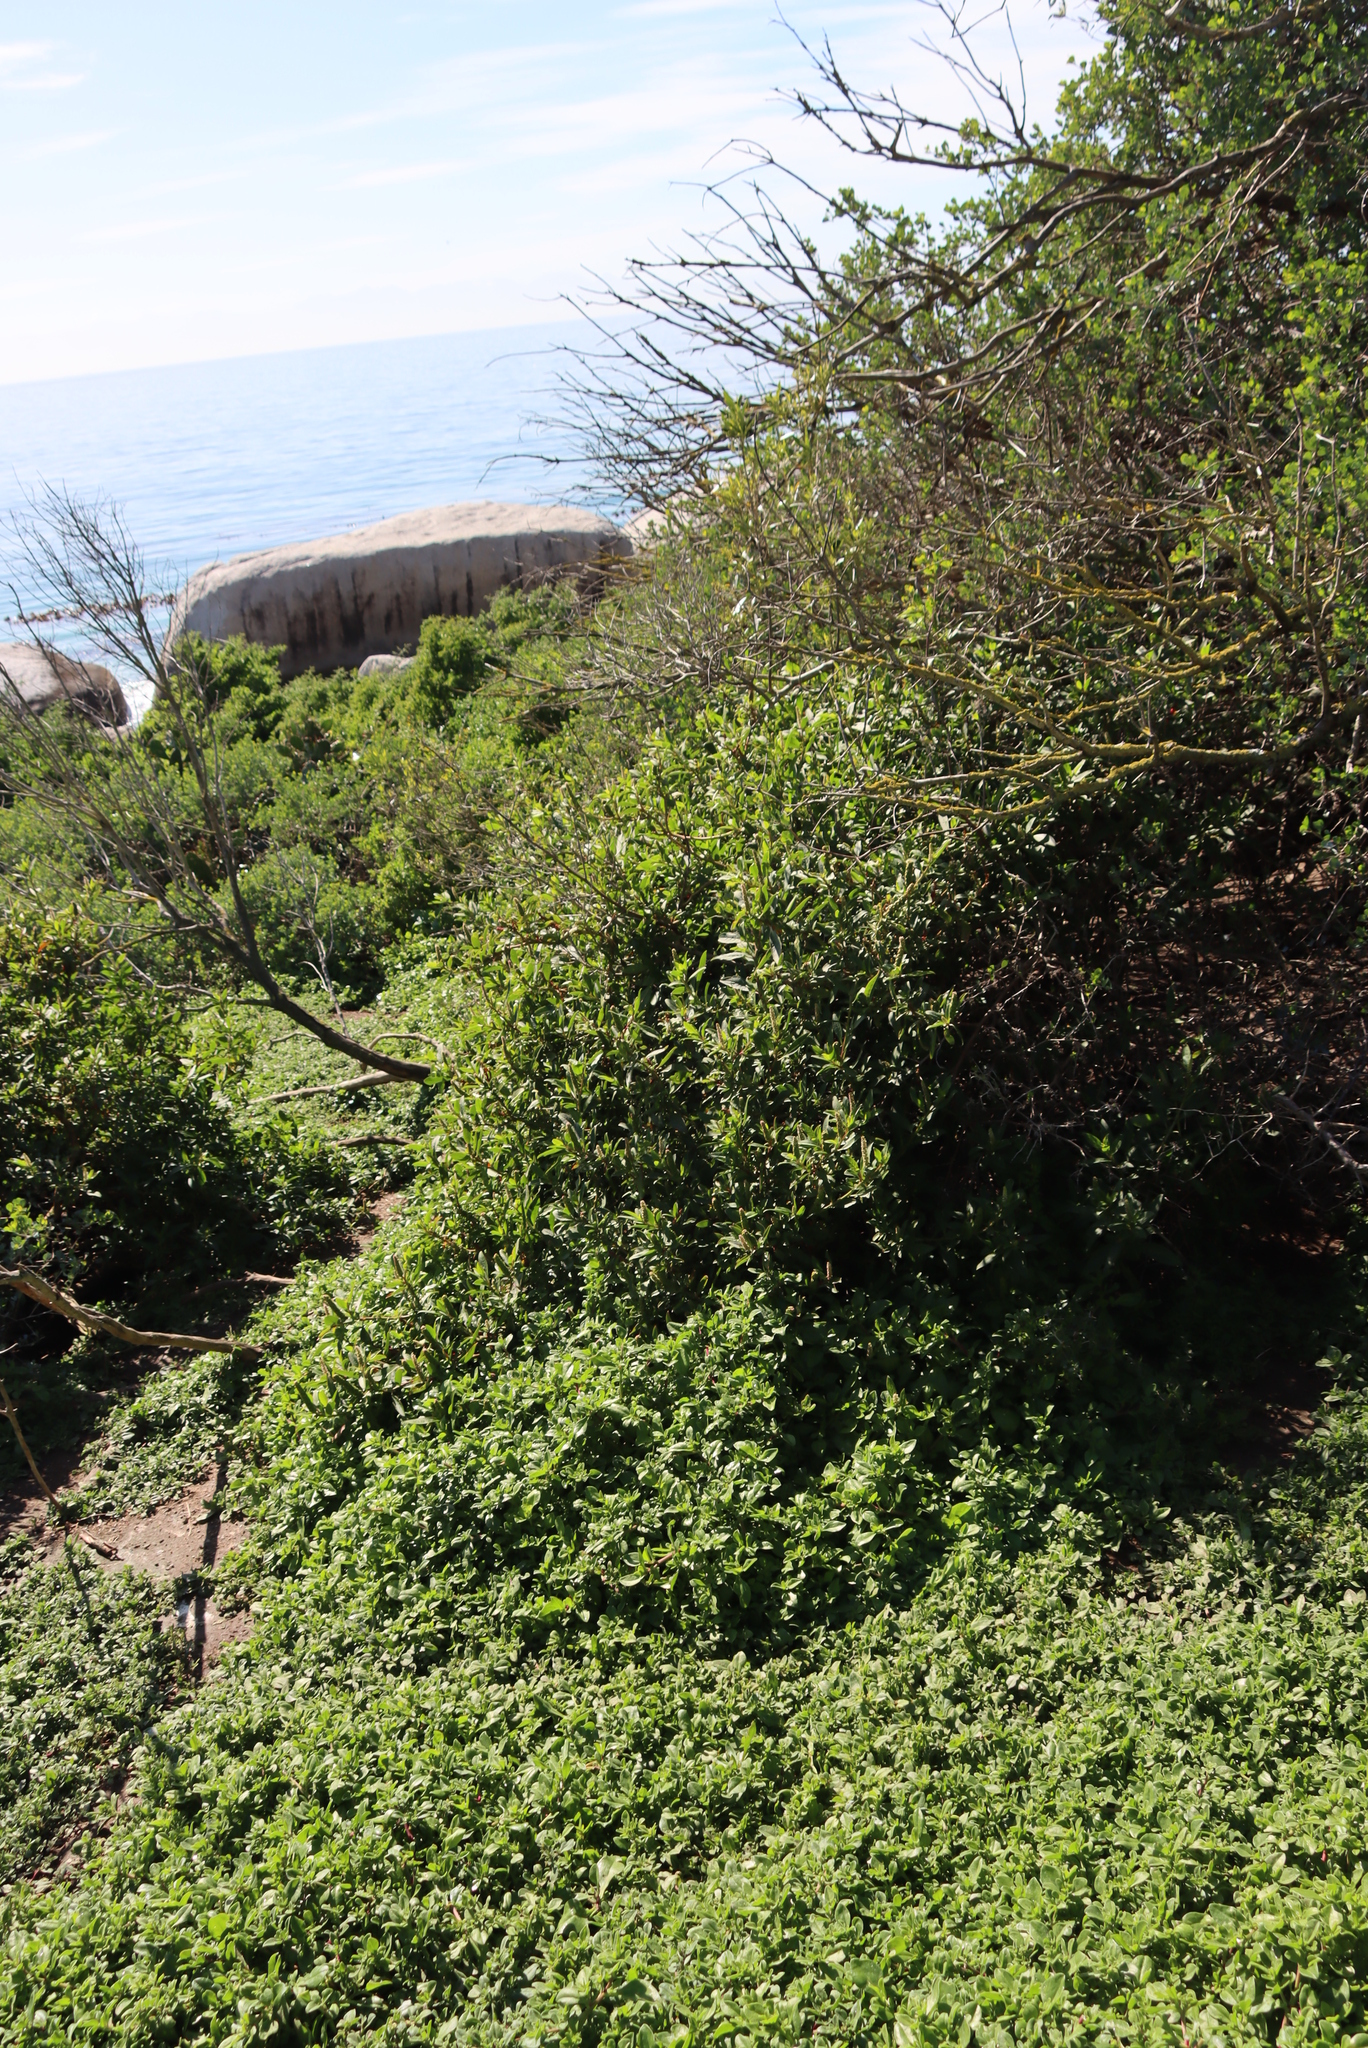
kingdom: Plantae
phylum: Tracheophyta
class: Magnoliopsida
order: Caryophyllales
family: Phytolaccaceae
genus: Phytolacca
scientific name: Phytolacca icosandra
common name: Button pokeweed
